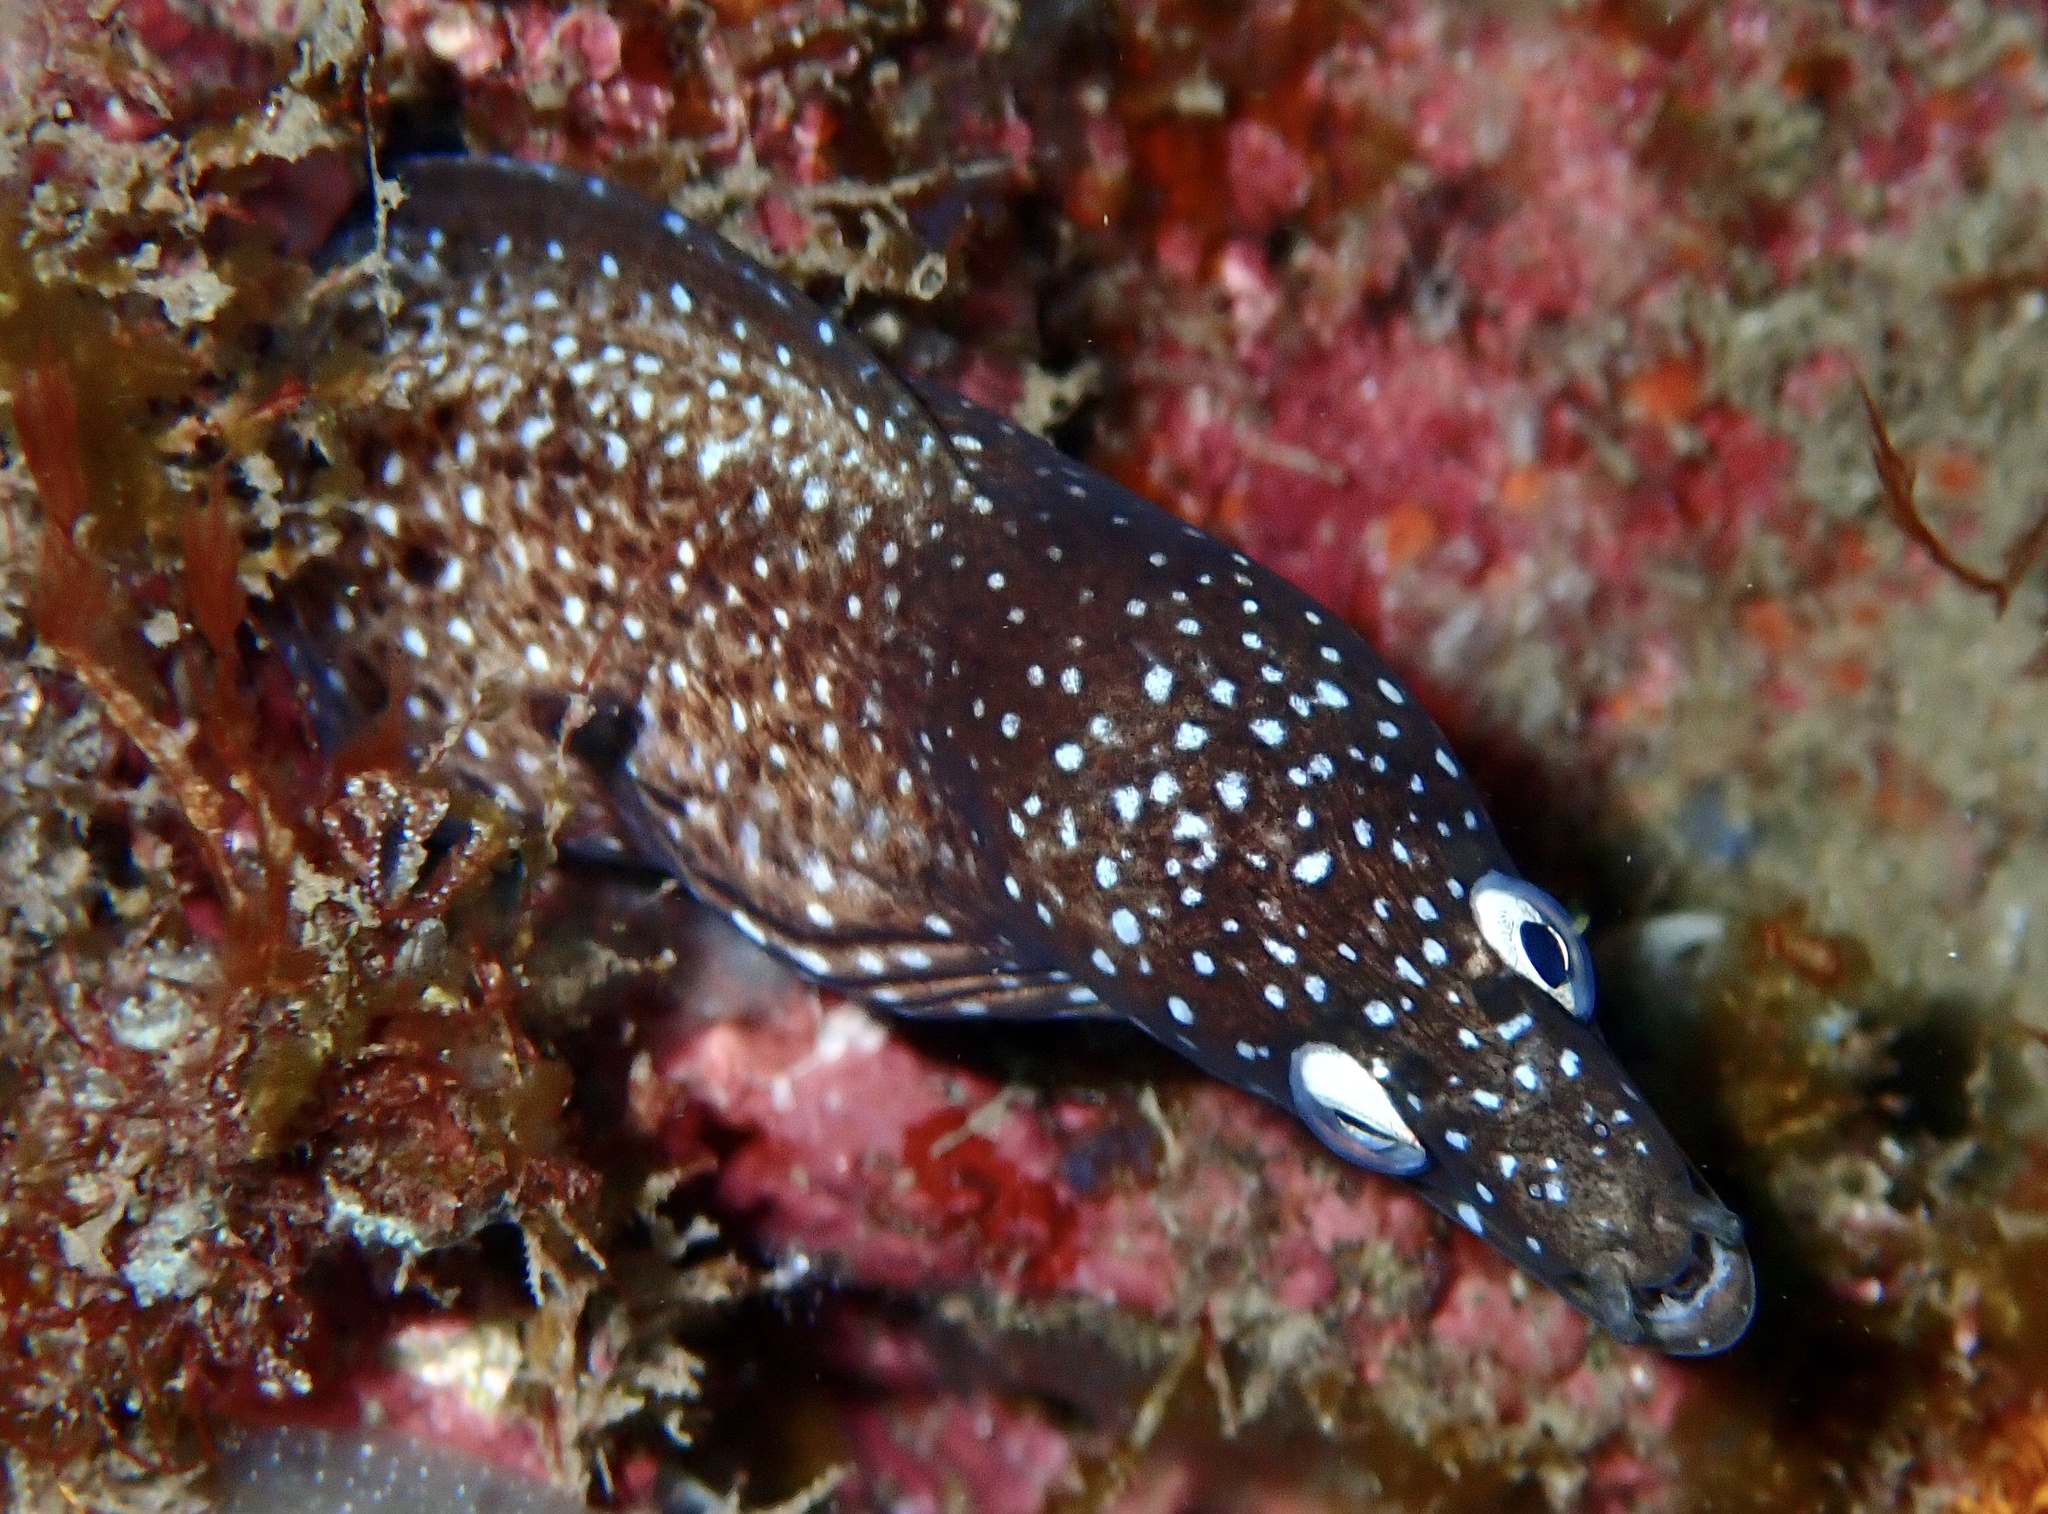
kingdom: Animalia
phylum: Chordata
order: Anguilliformes
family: Muraenidae
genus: Muraena
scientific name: Muraena augusti
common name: Mediterranean moray
